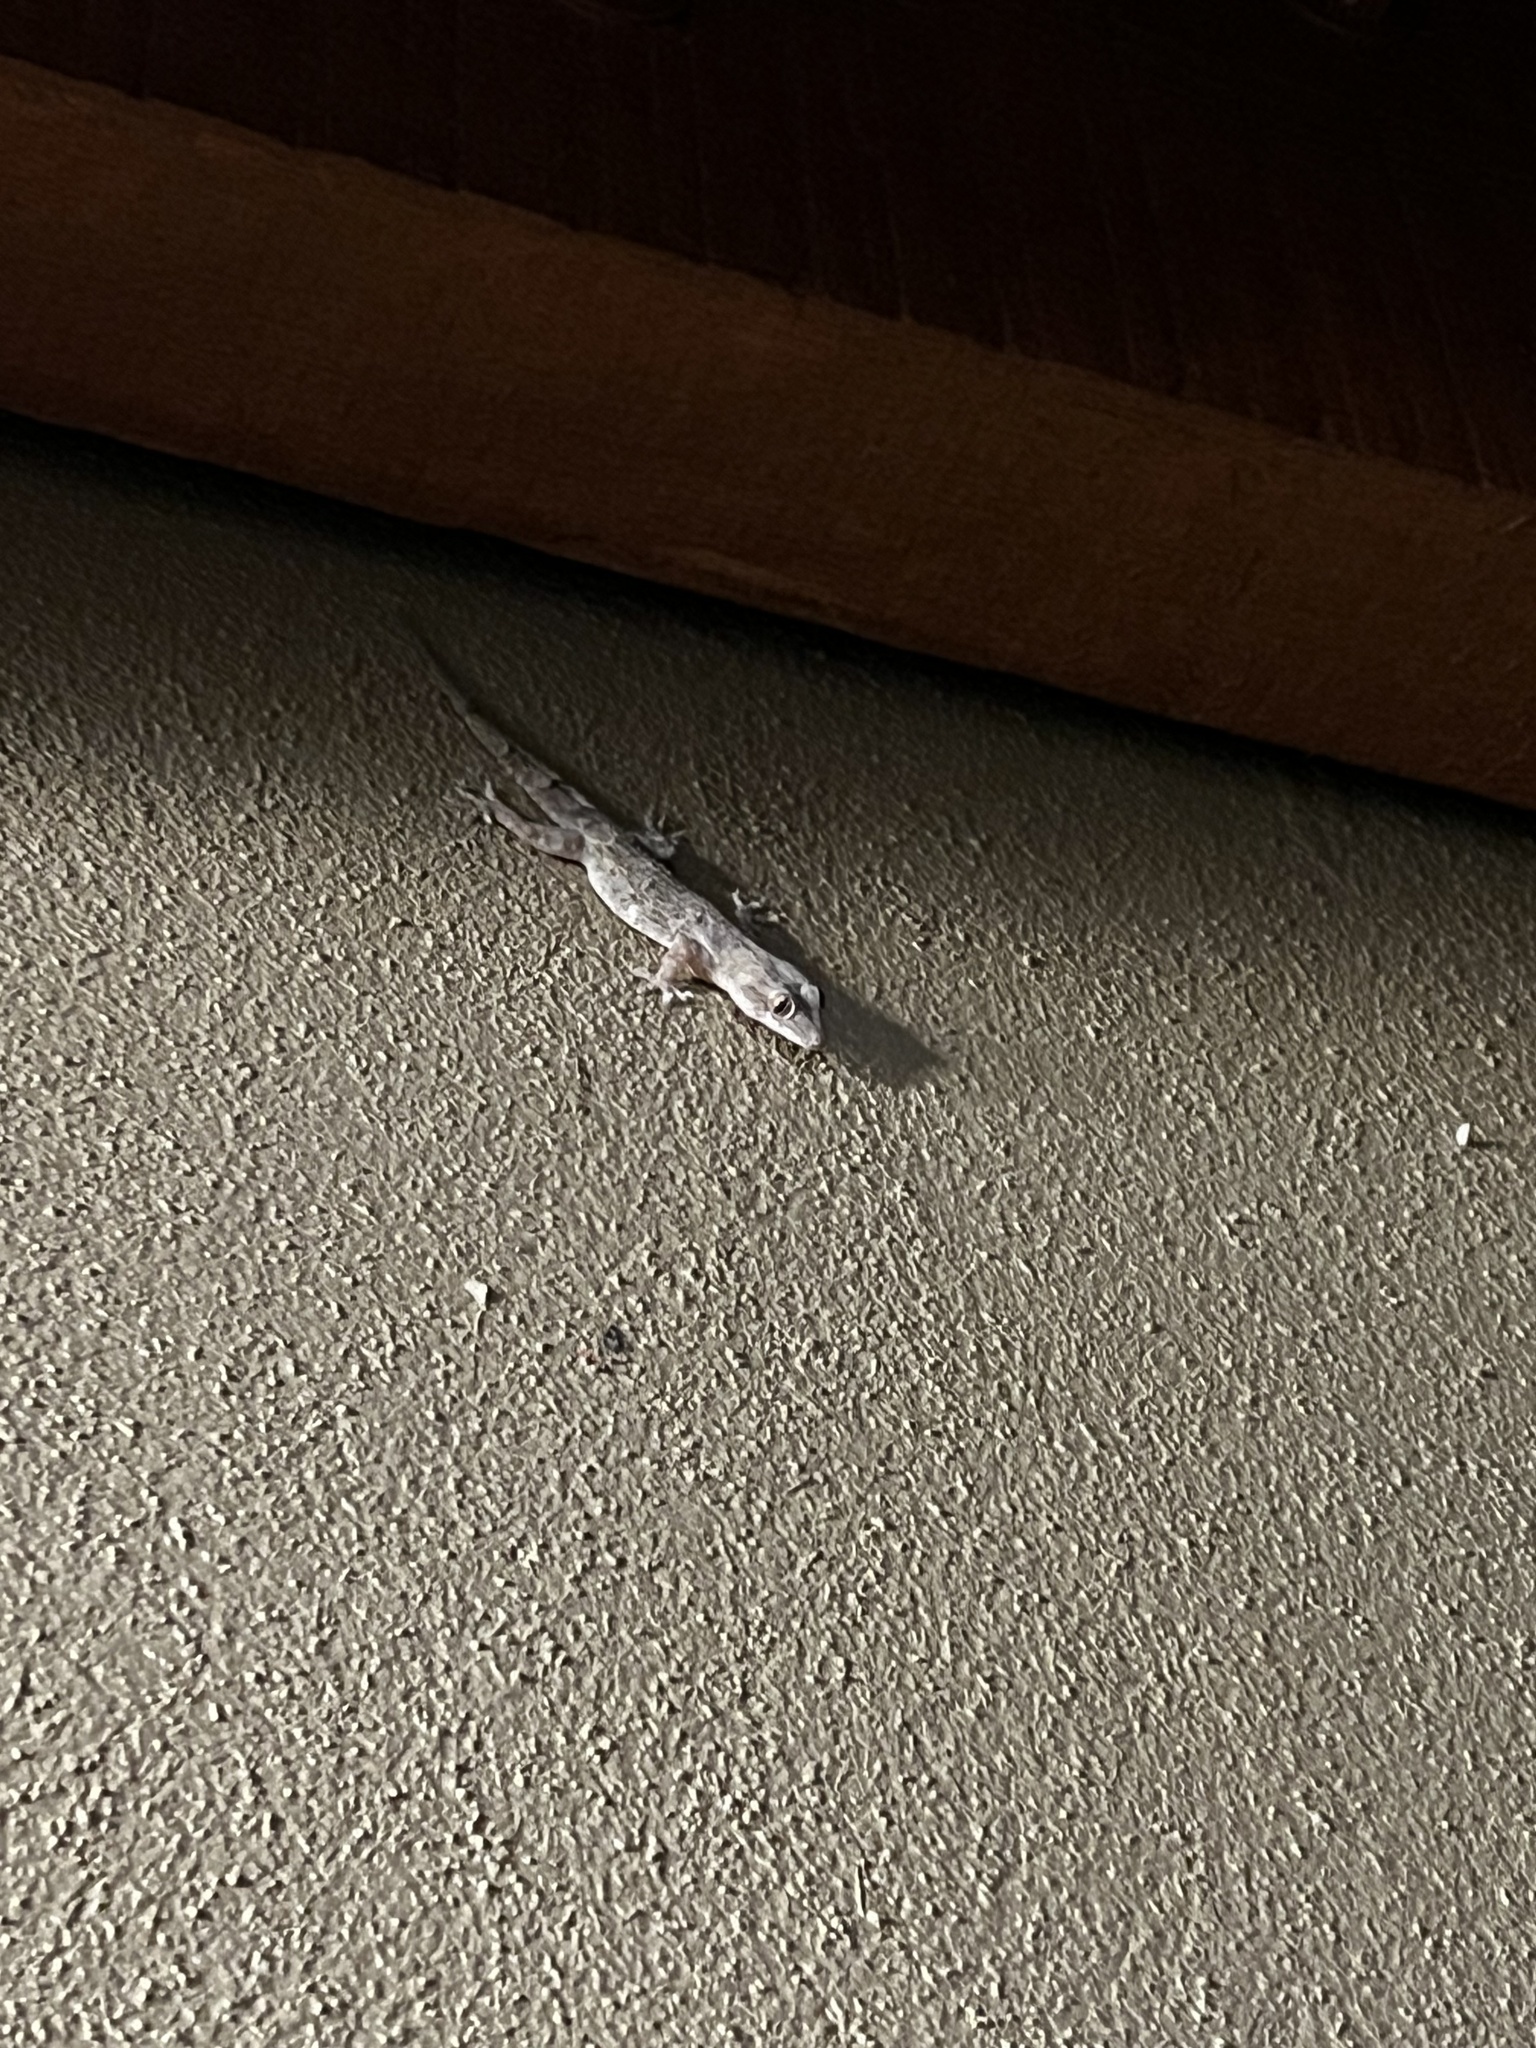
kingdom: Animalia
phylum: Chordata
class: Squamata
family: Gekkonidae
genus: Hemidactylus
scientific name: Hemidactylus mabouia
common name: House gecko
